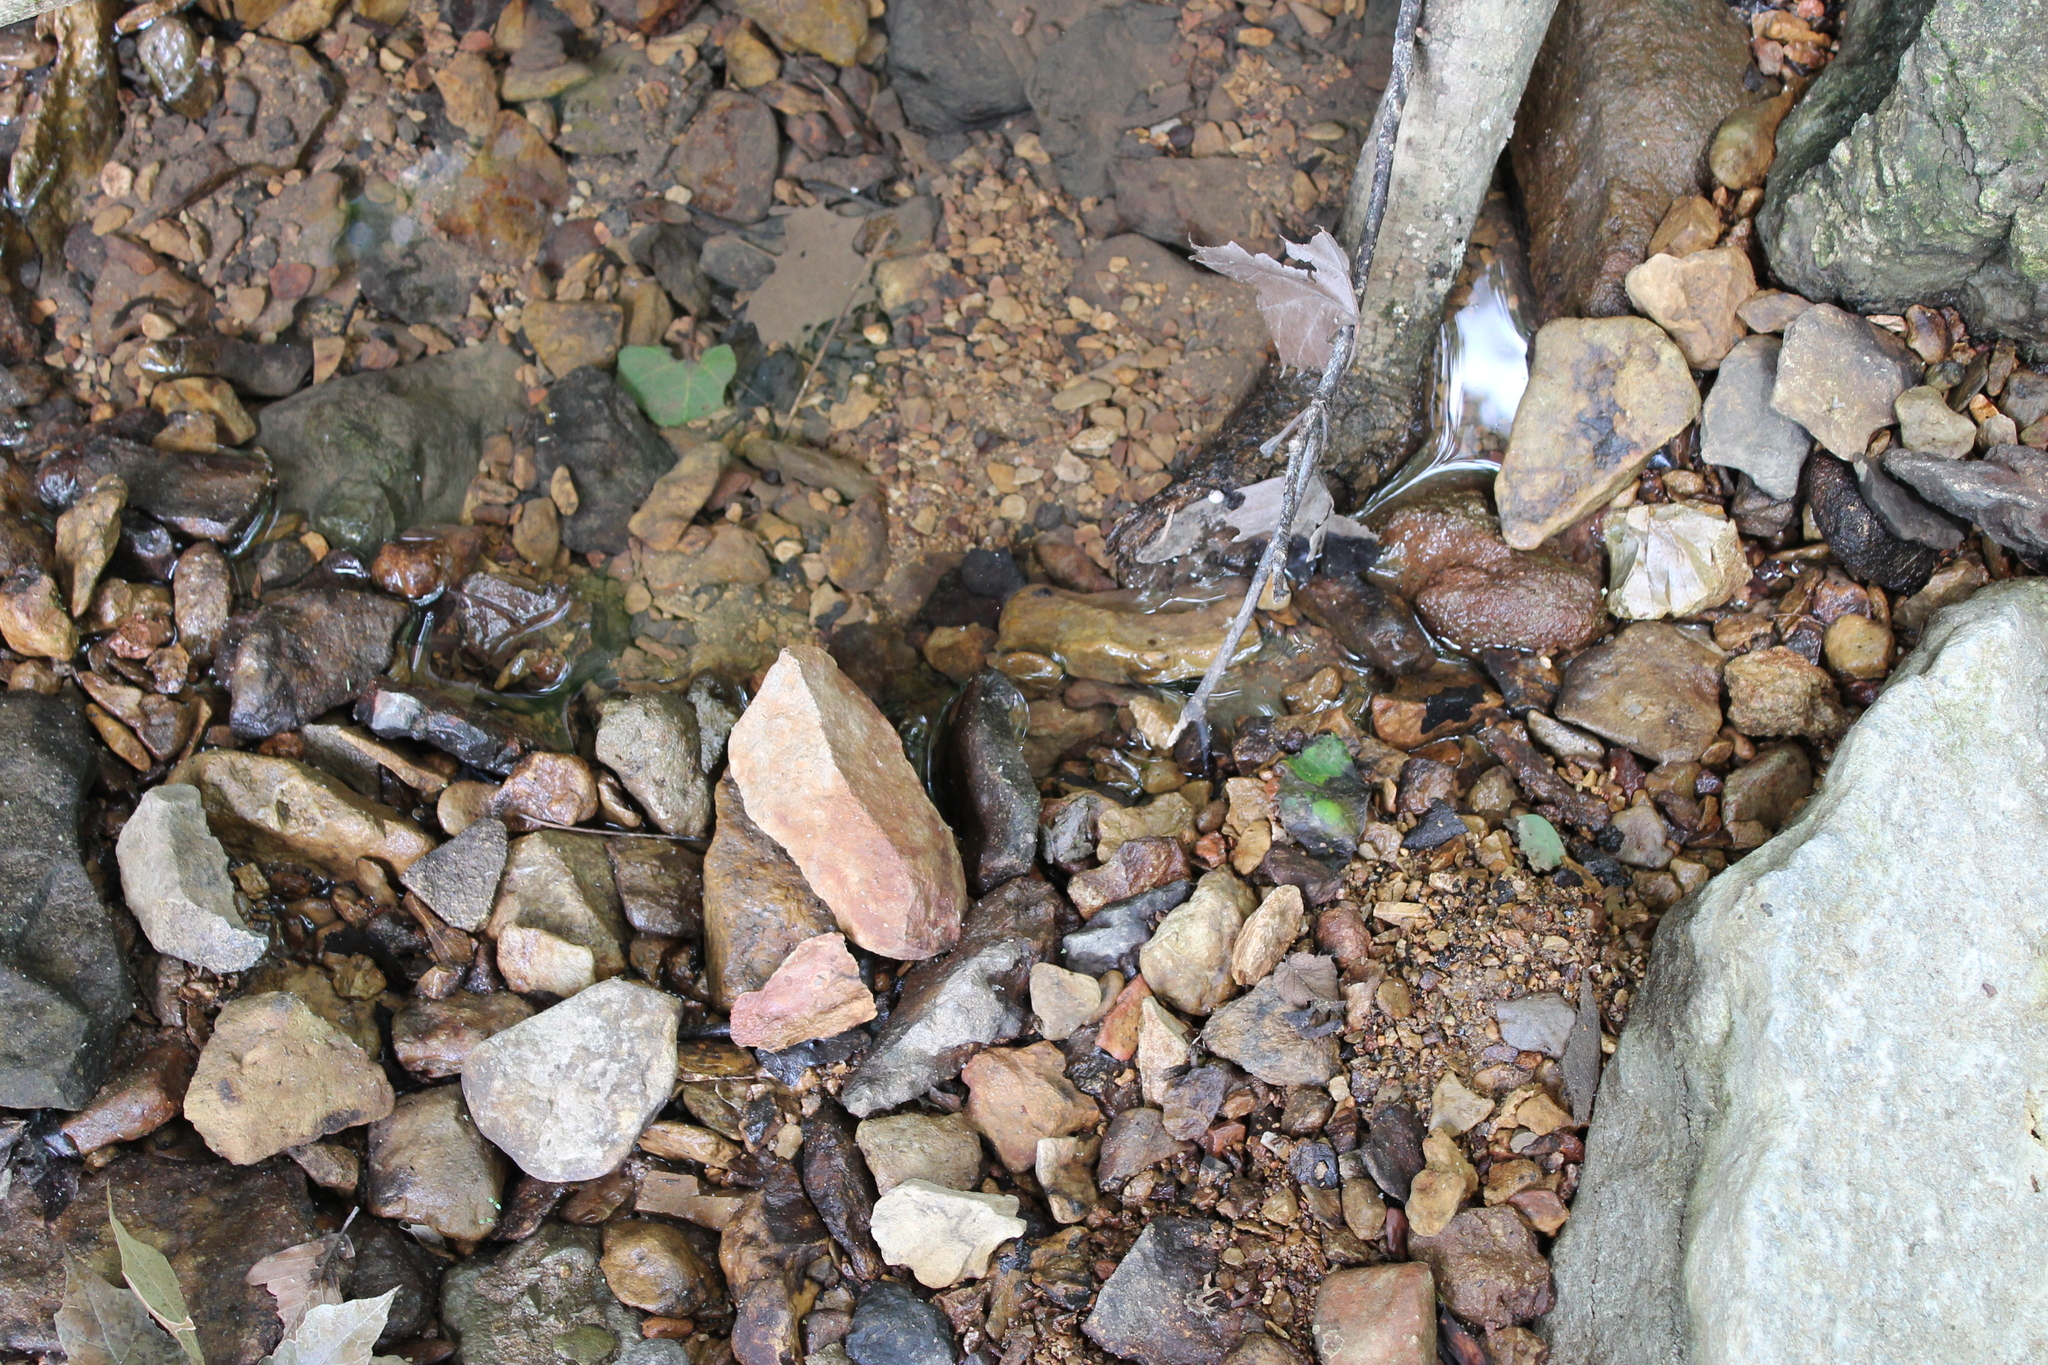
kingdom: Animalia
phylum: Chordata
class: Amphibia
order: Anura
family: Hylidae
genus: Acris
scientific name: Acris crepitans
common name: Northern cricket frog
